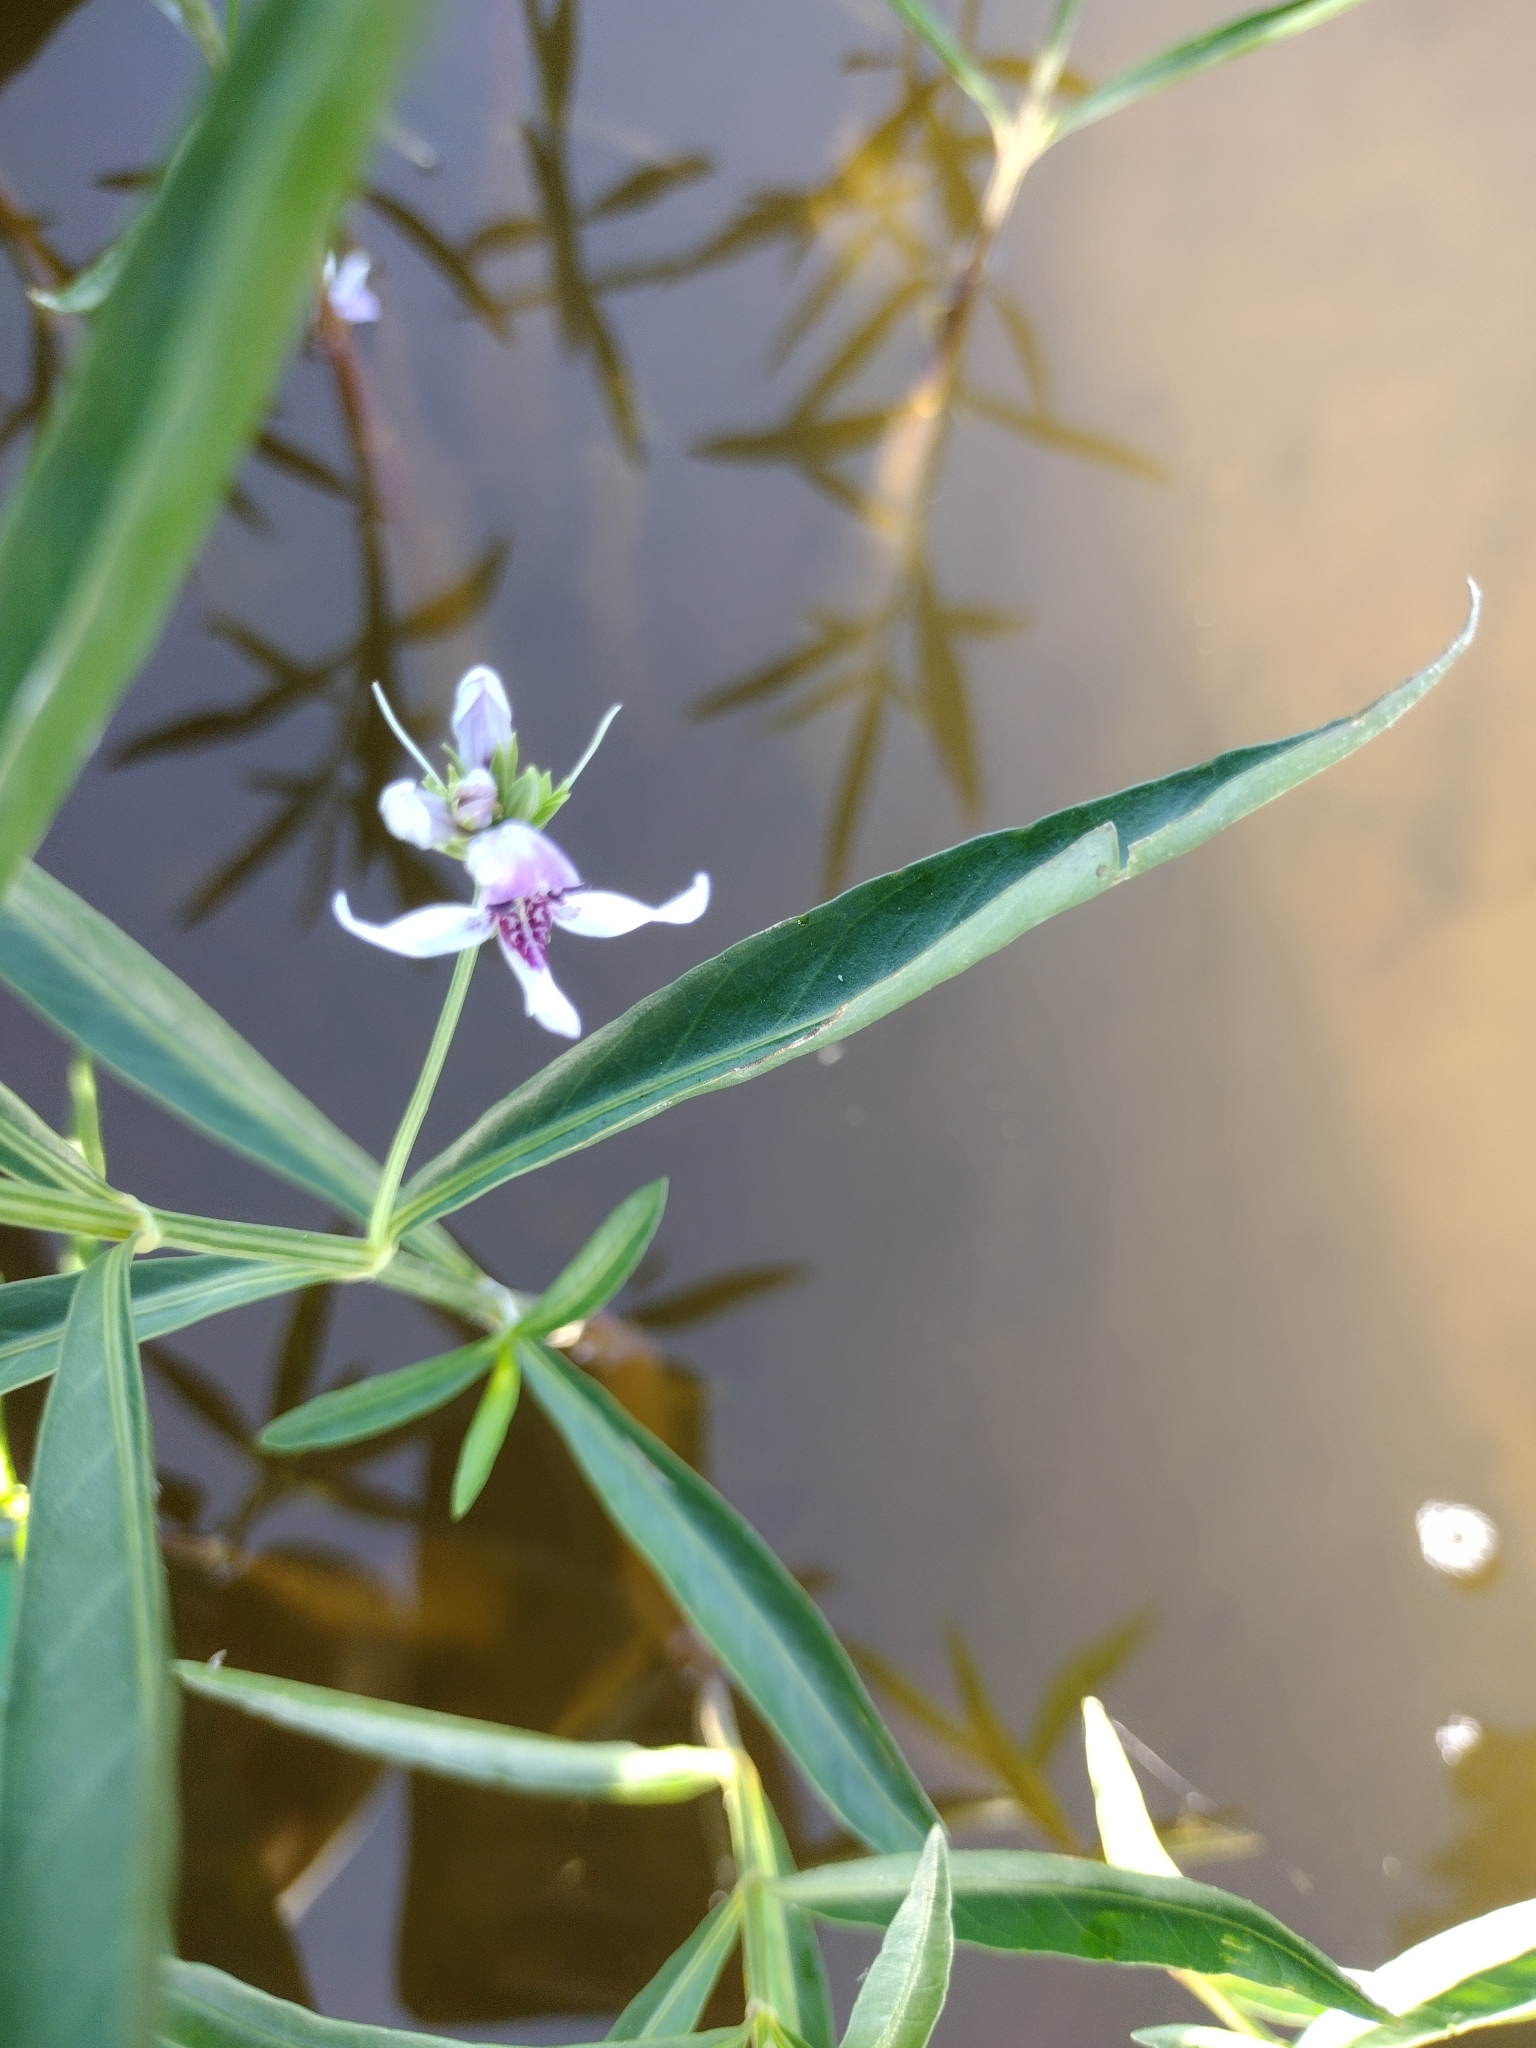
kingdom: Plantae
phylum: Tracheophyta
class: Magnoliopsida
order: Lamiales
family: Acanthaceae
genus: Dianthera
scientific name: Dianthera americana
